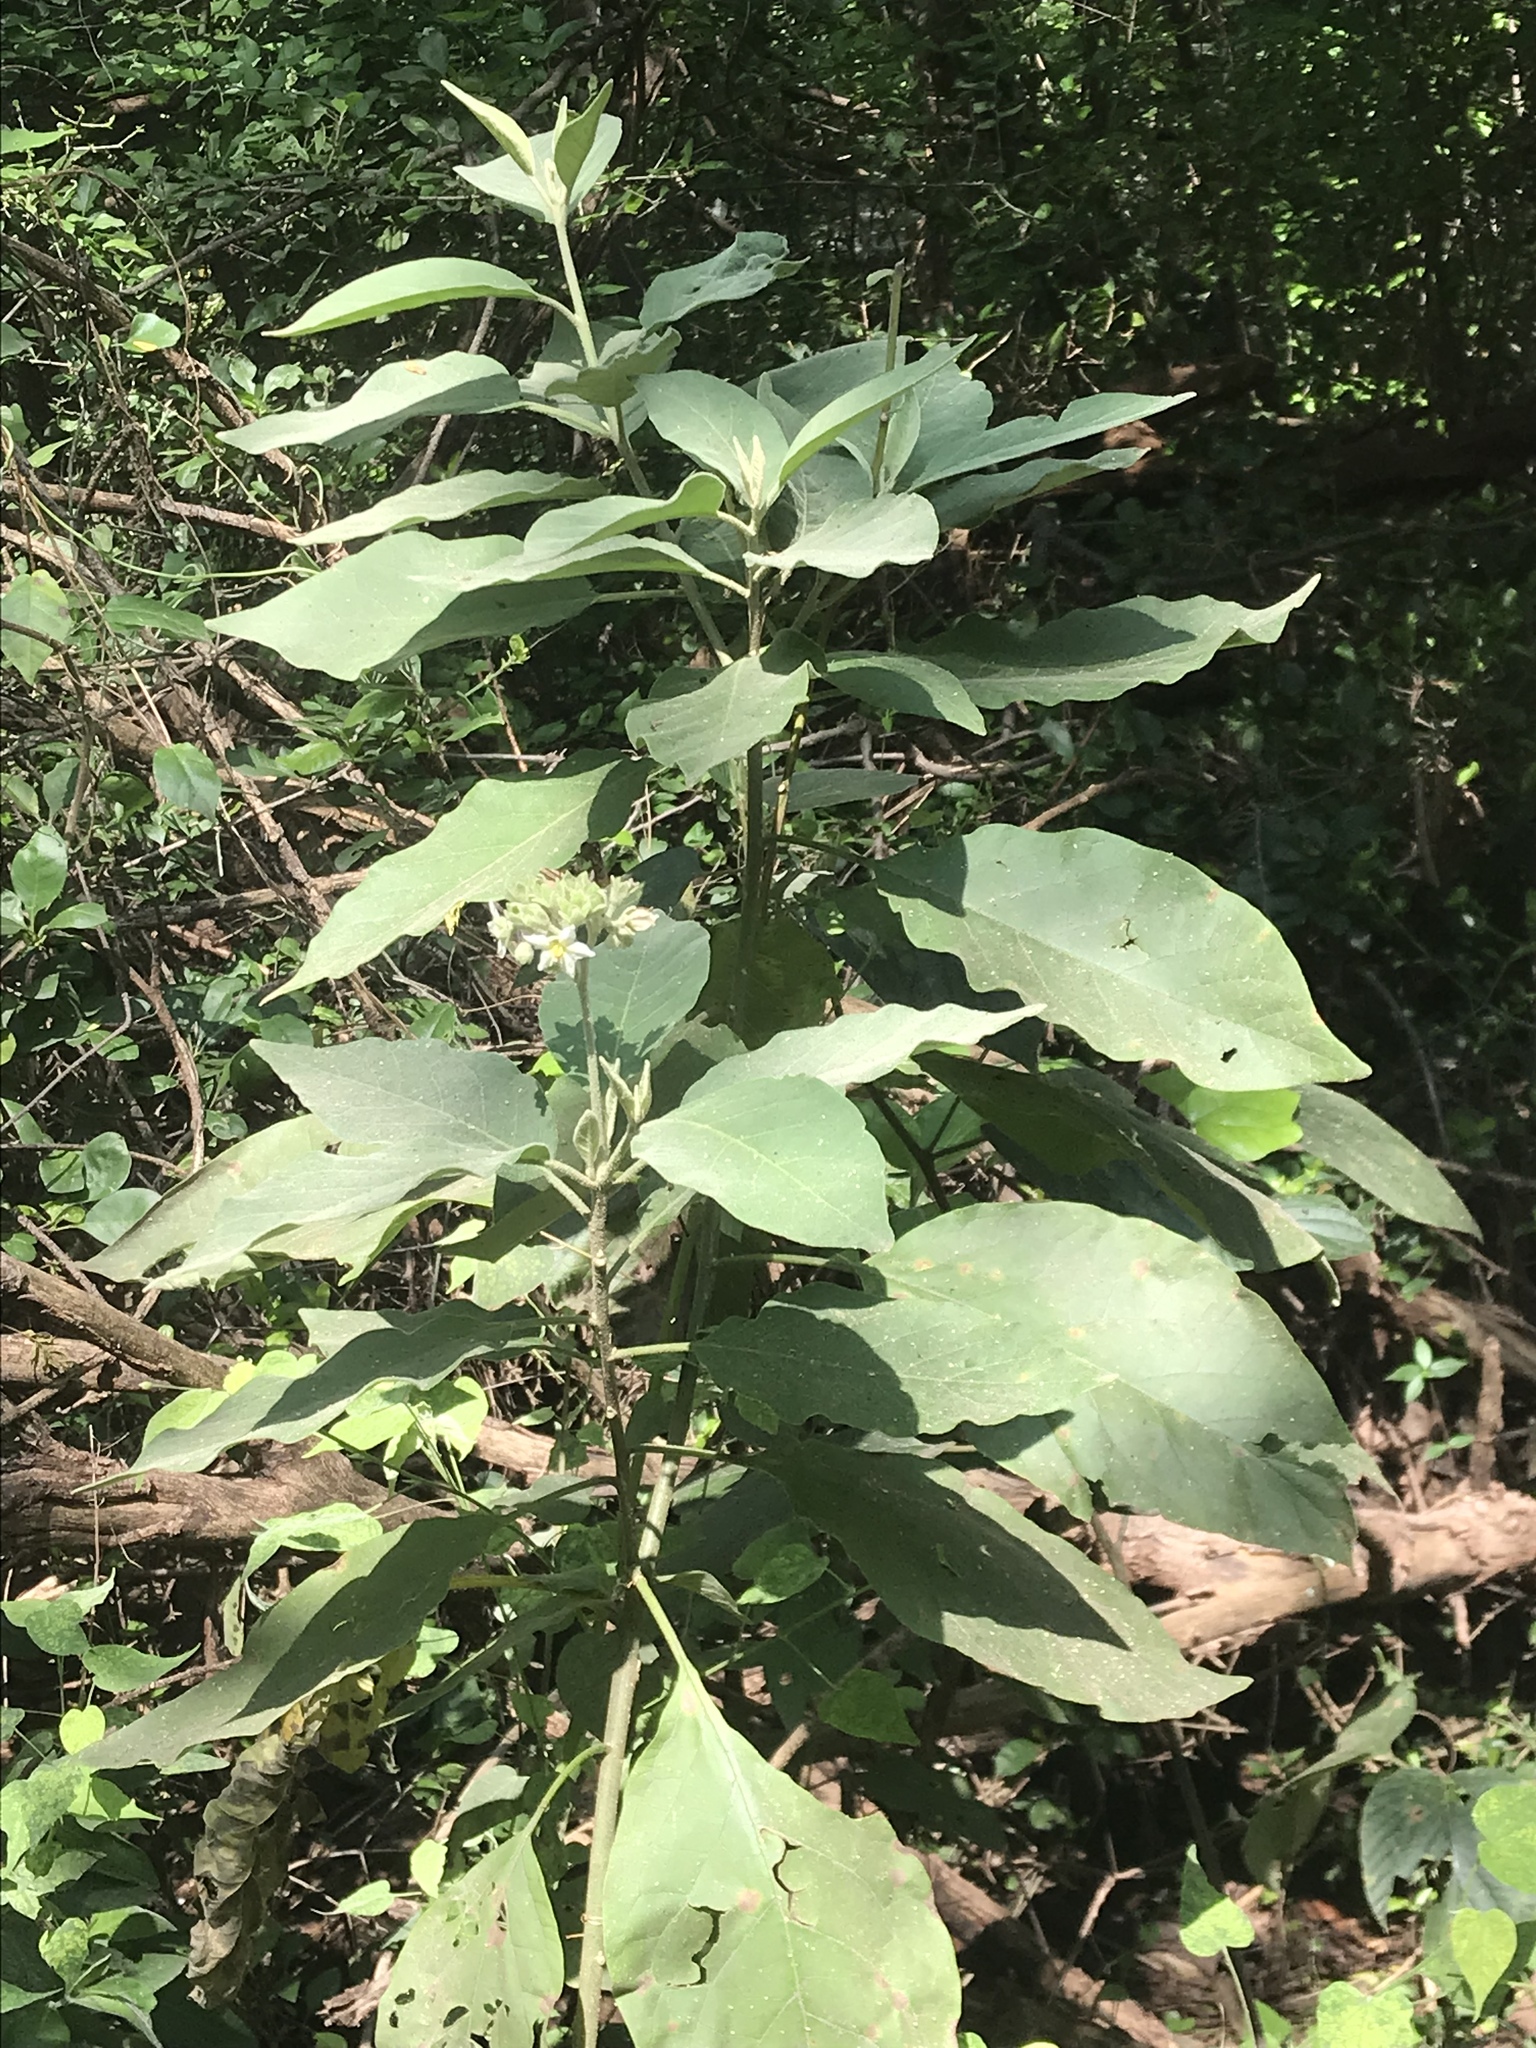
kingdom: Plantae
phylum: Tracheophyta
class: Magnoliopsida
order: Solanales
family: Solanaceae
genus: Solanum
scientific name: Solanum erianthum
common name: Tobacco-tree
